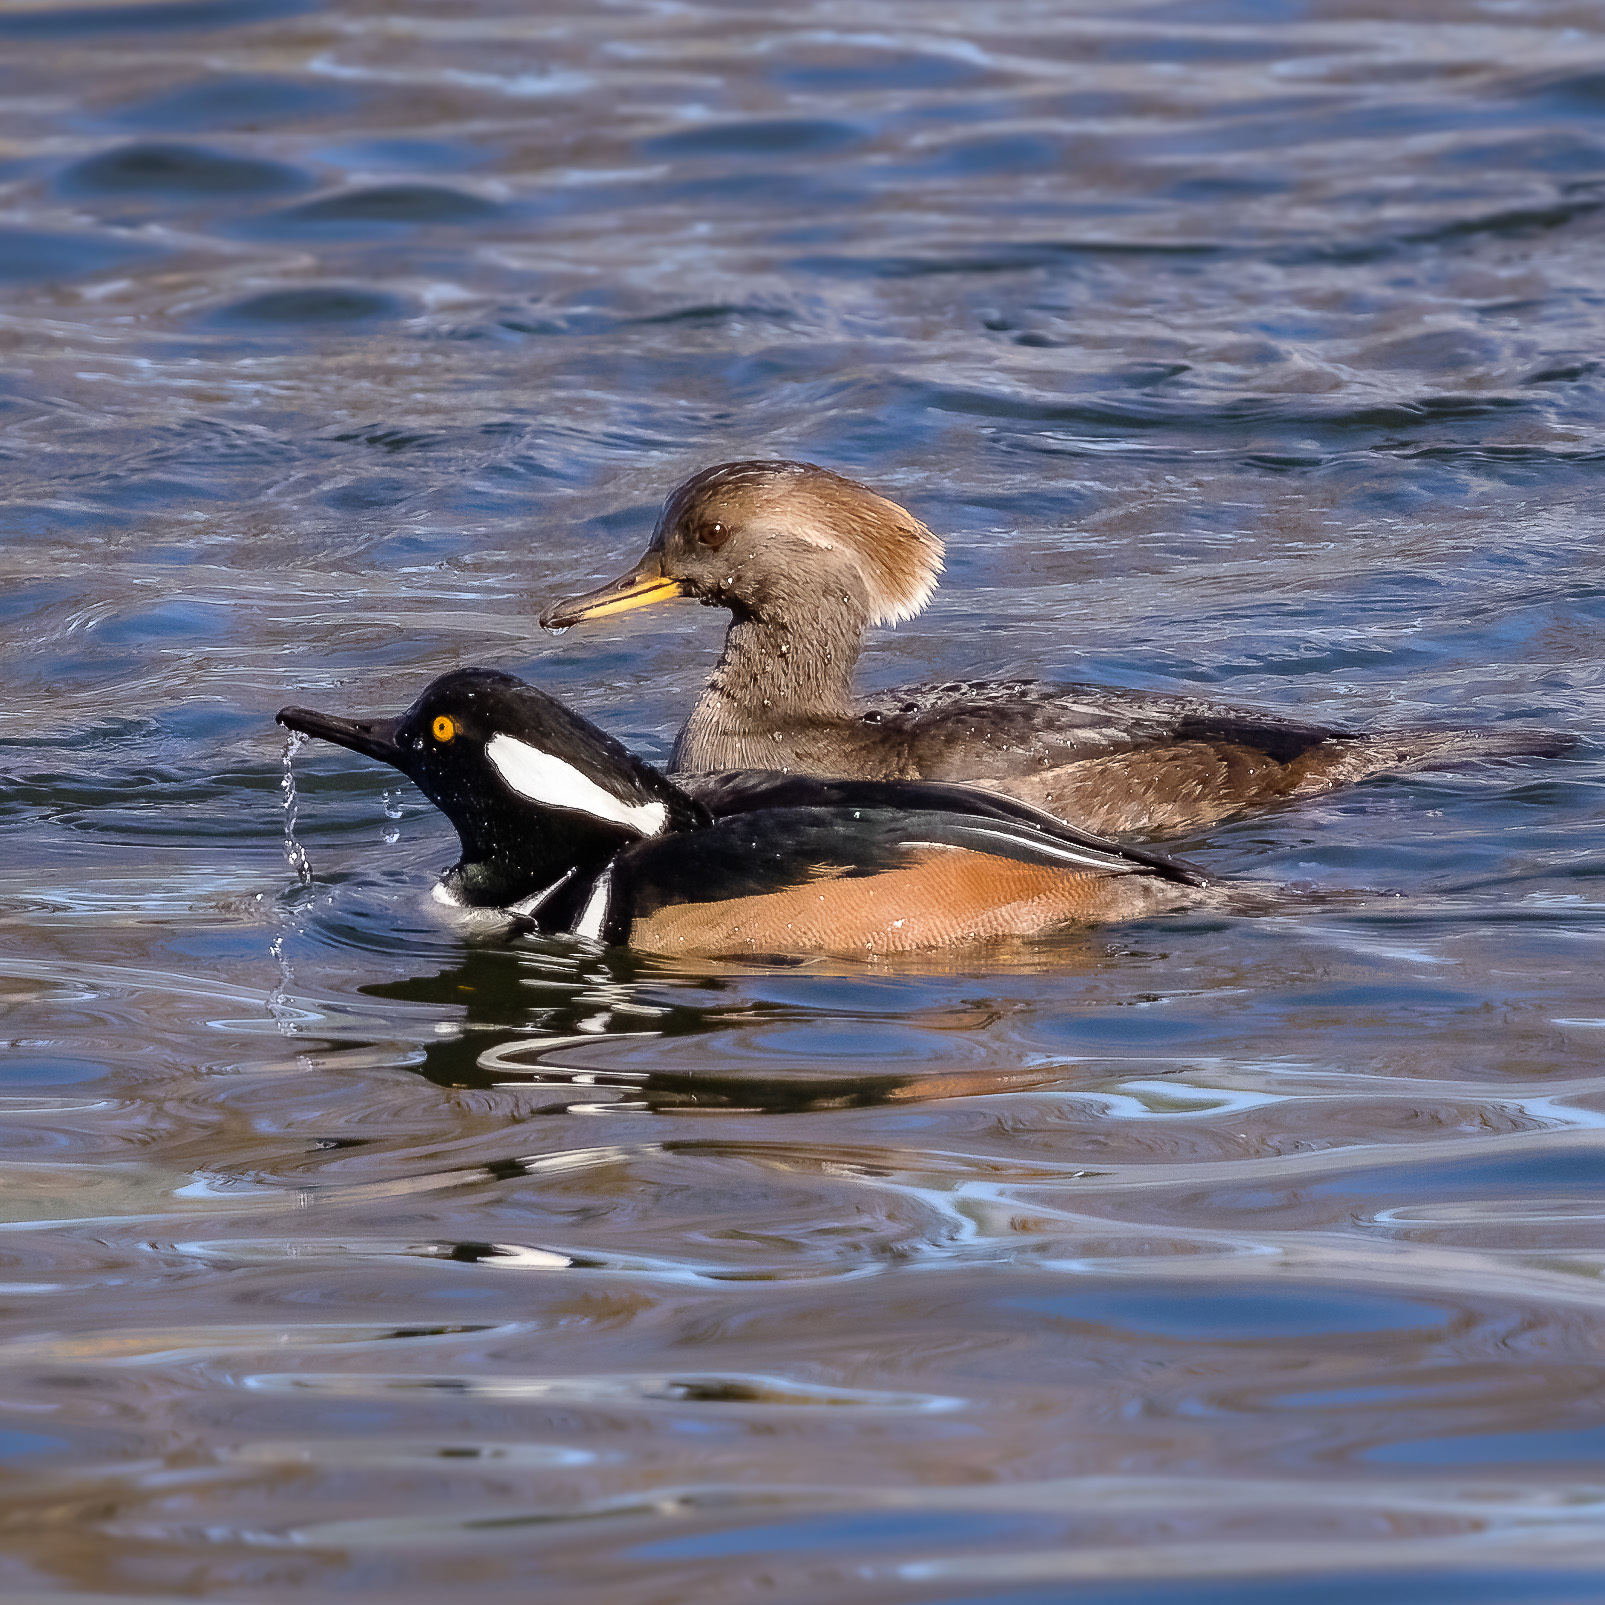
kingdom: Animalia
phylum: Chordata
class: Aves
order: Anseriformes
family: Anatidae
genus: Lophodytes
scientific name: Lophodytes cucullatus
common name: Hooded merganser
